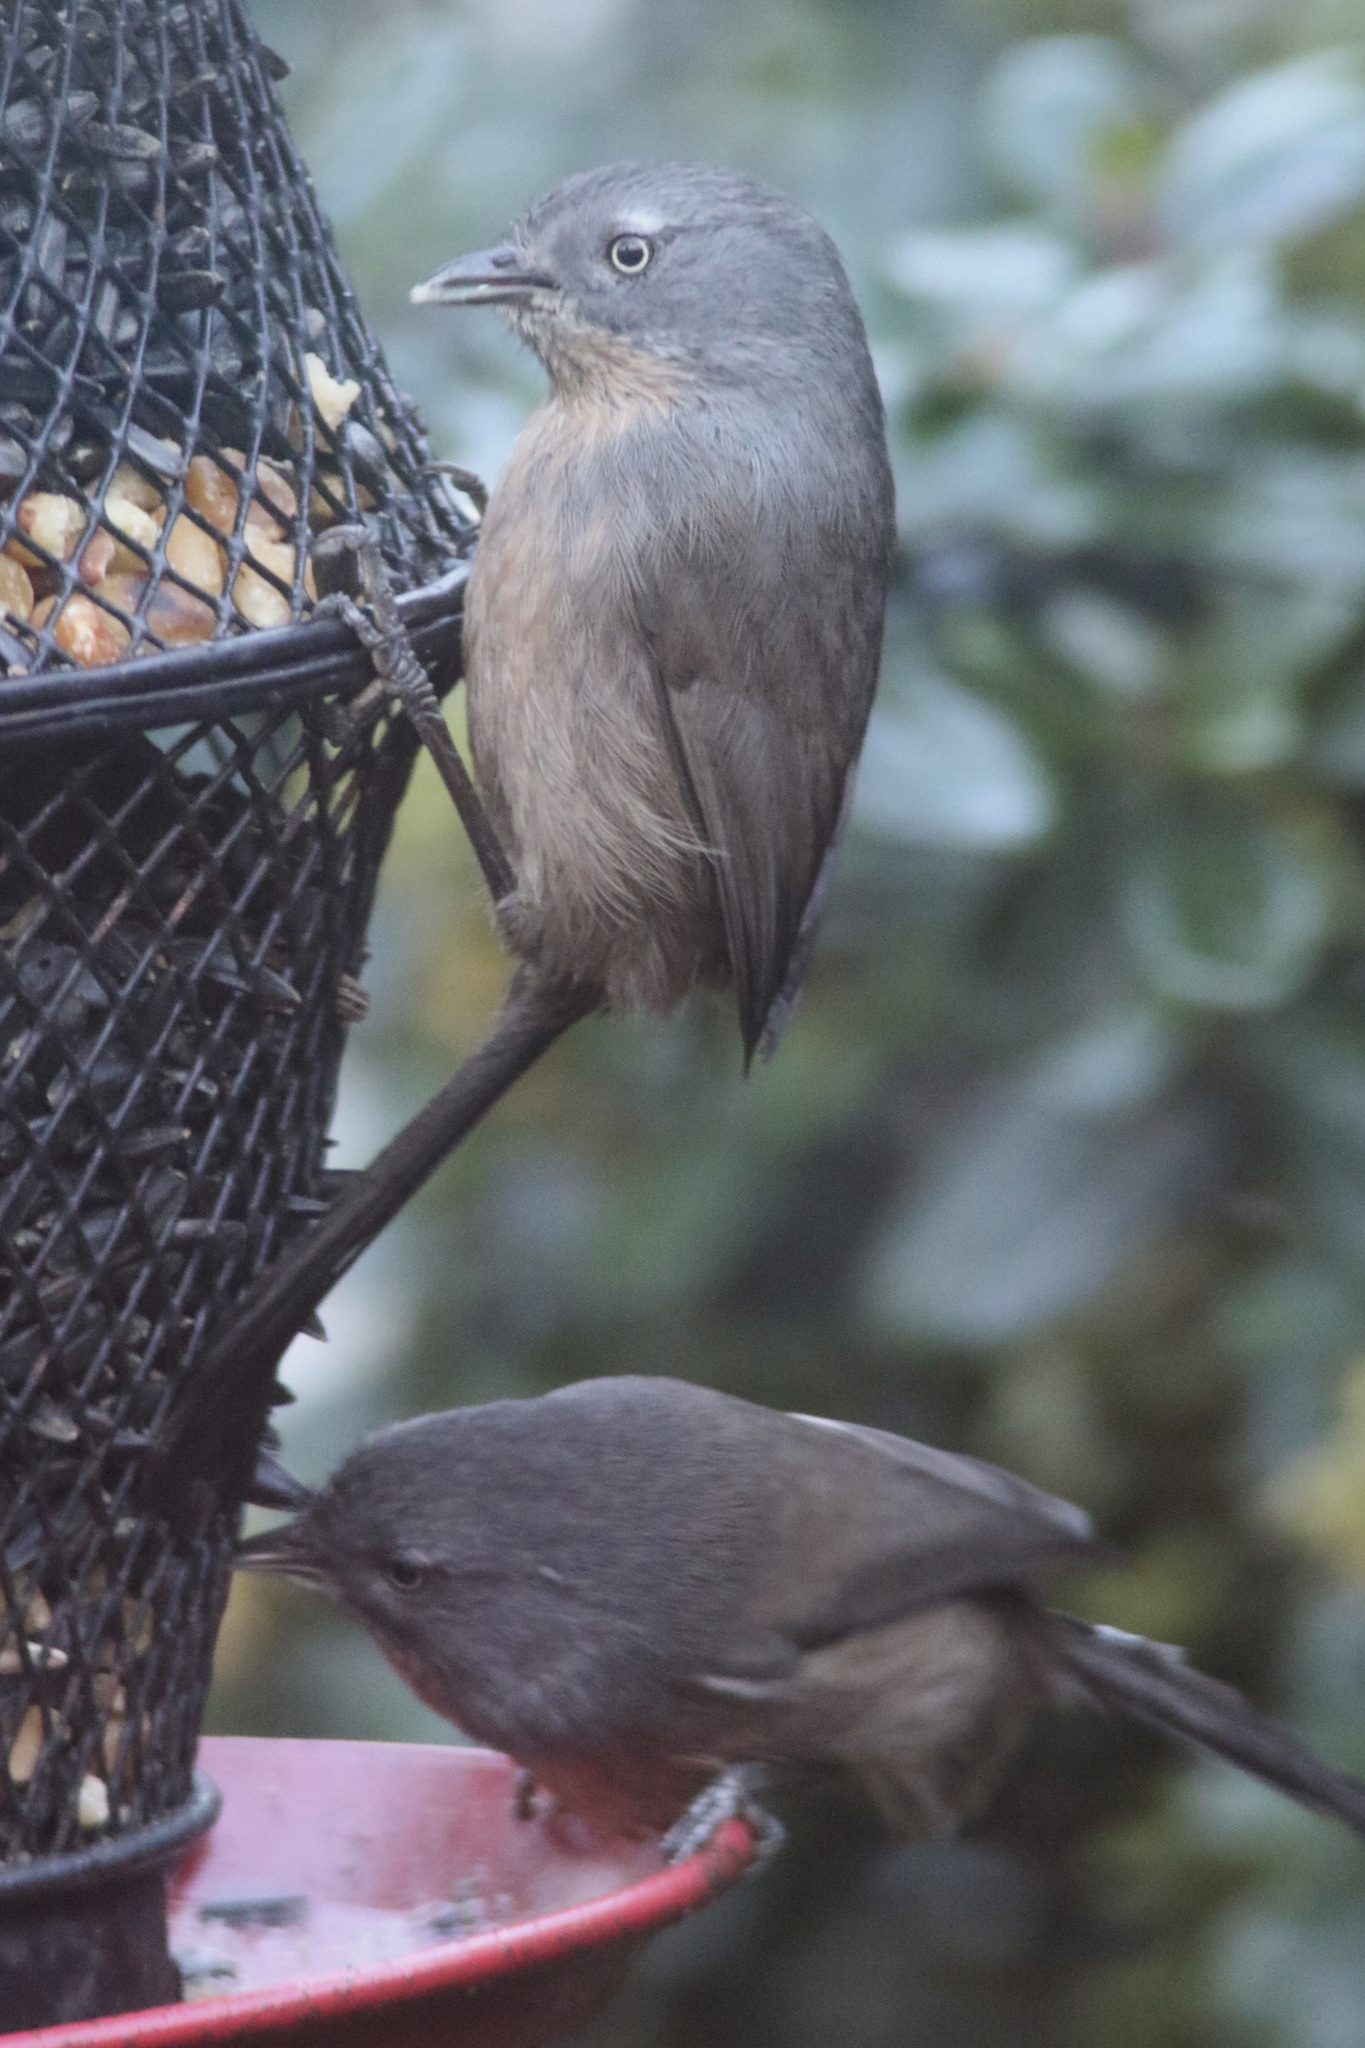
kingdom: Animalia
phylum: Chordata
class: Aves
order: Passeriformes
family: Sylviidae
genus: Chamaea
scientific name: Chamaea fasciata
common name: Wrentit
